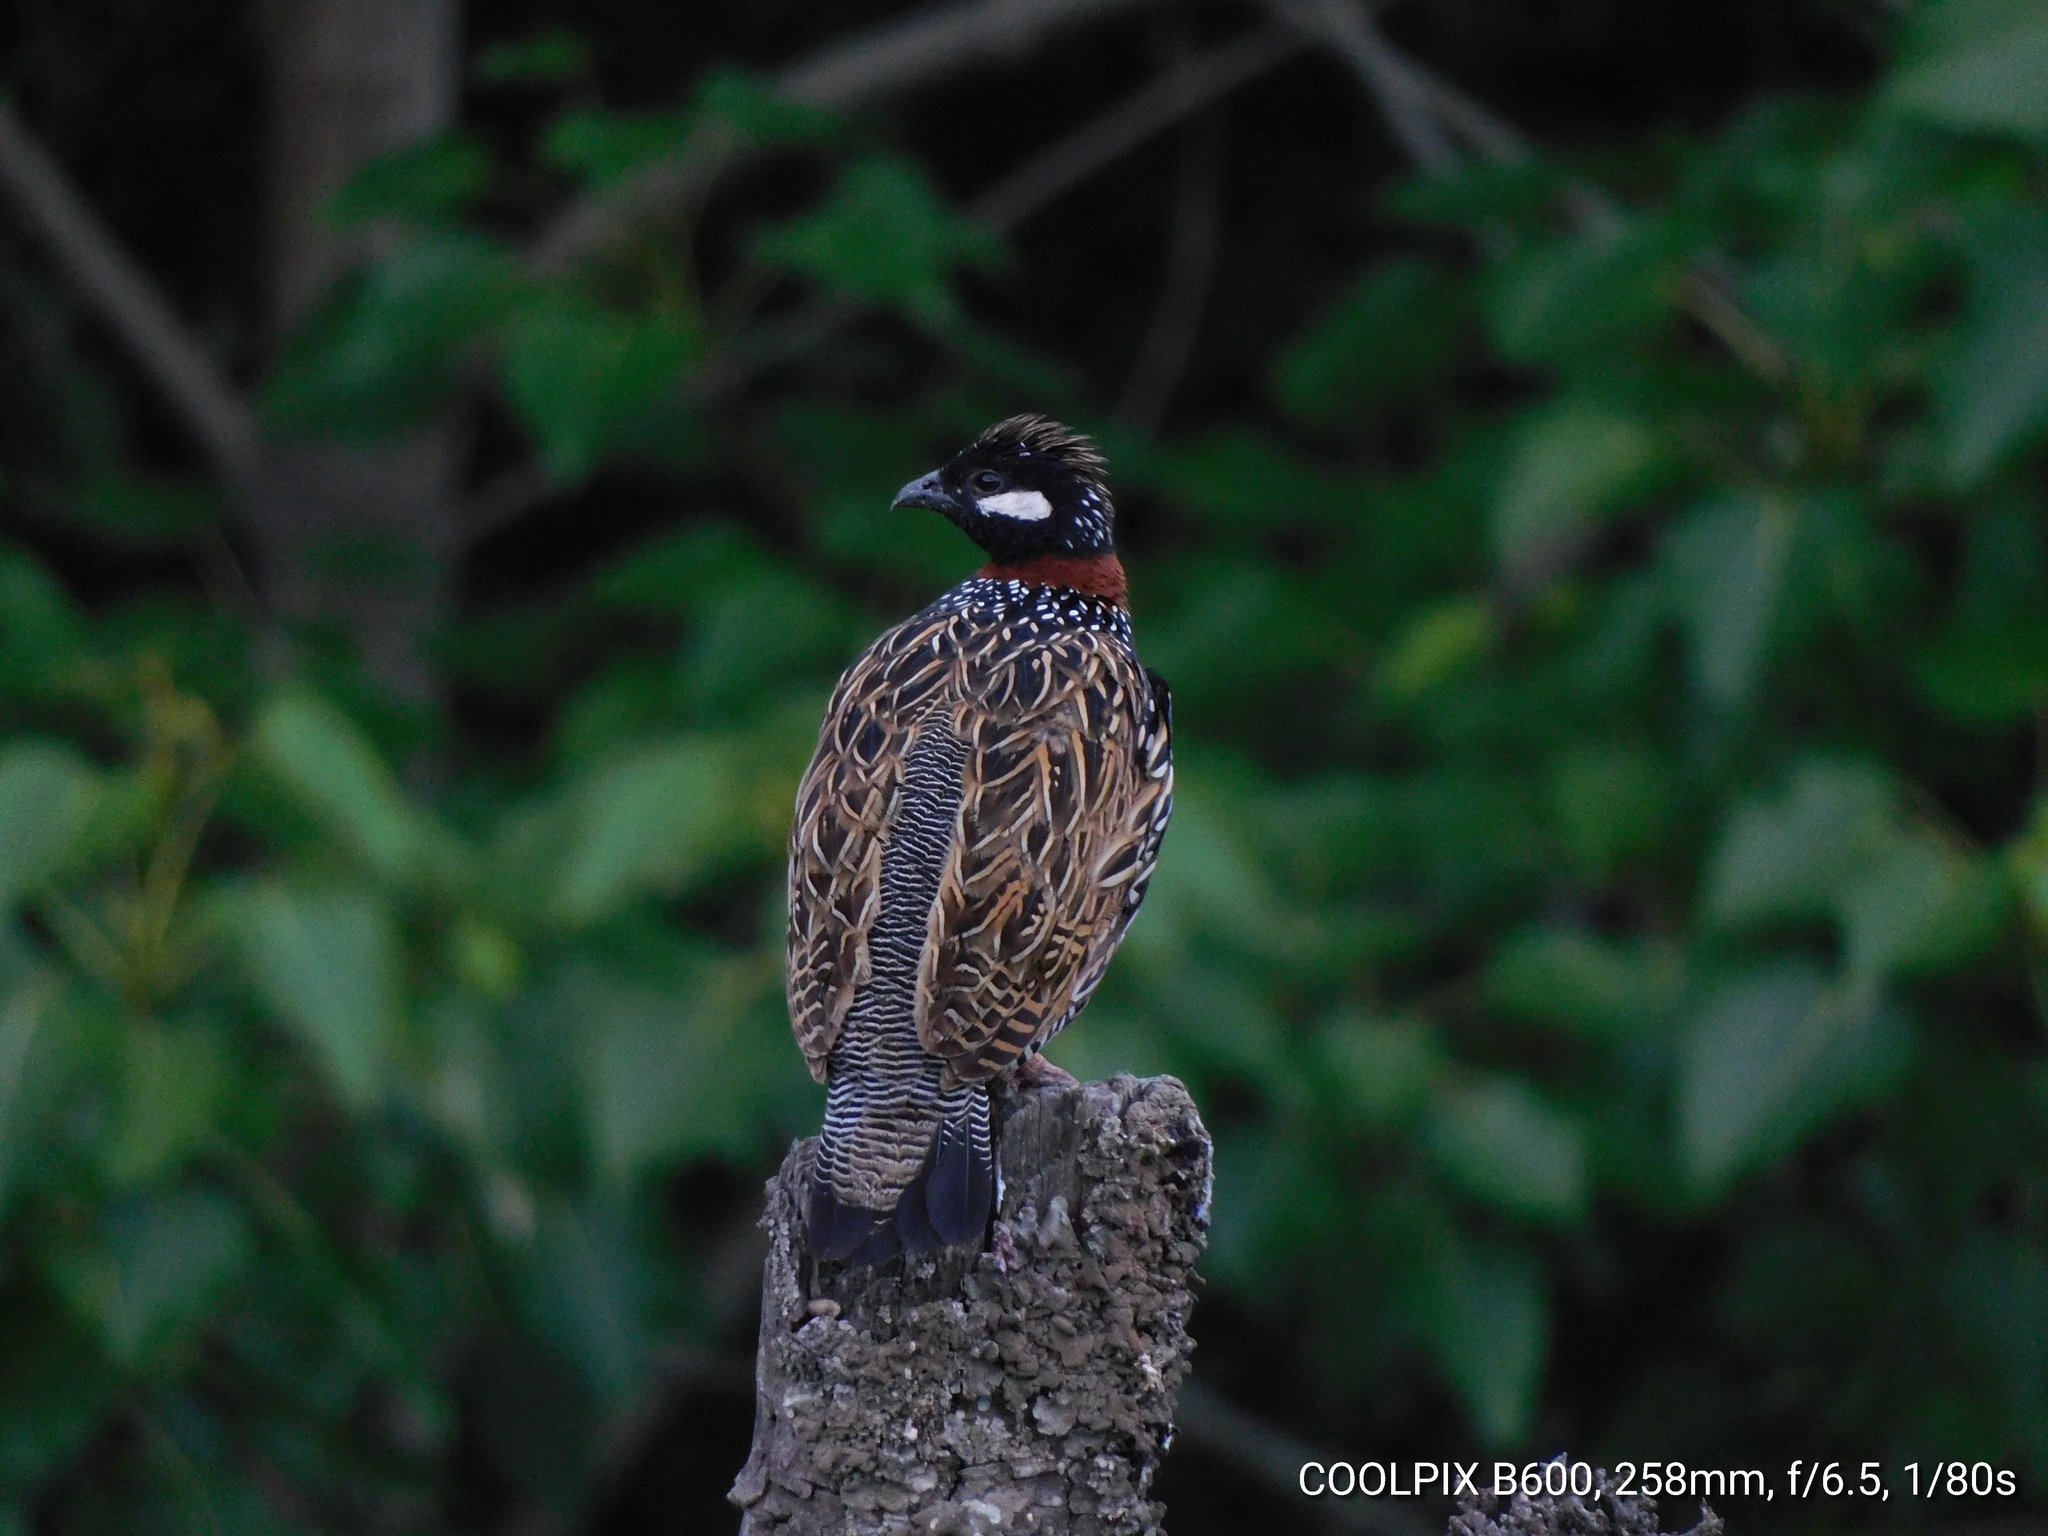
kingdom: Animalia
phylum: Chordata
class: Aves
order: Galliformes
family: Phasianidae
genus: Francolinus
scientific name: Francolinus francolinus
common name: Black francolin
